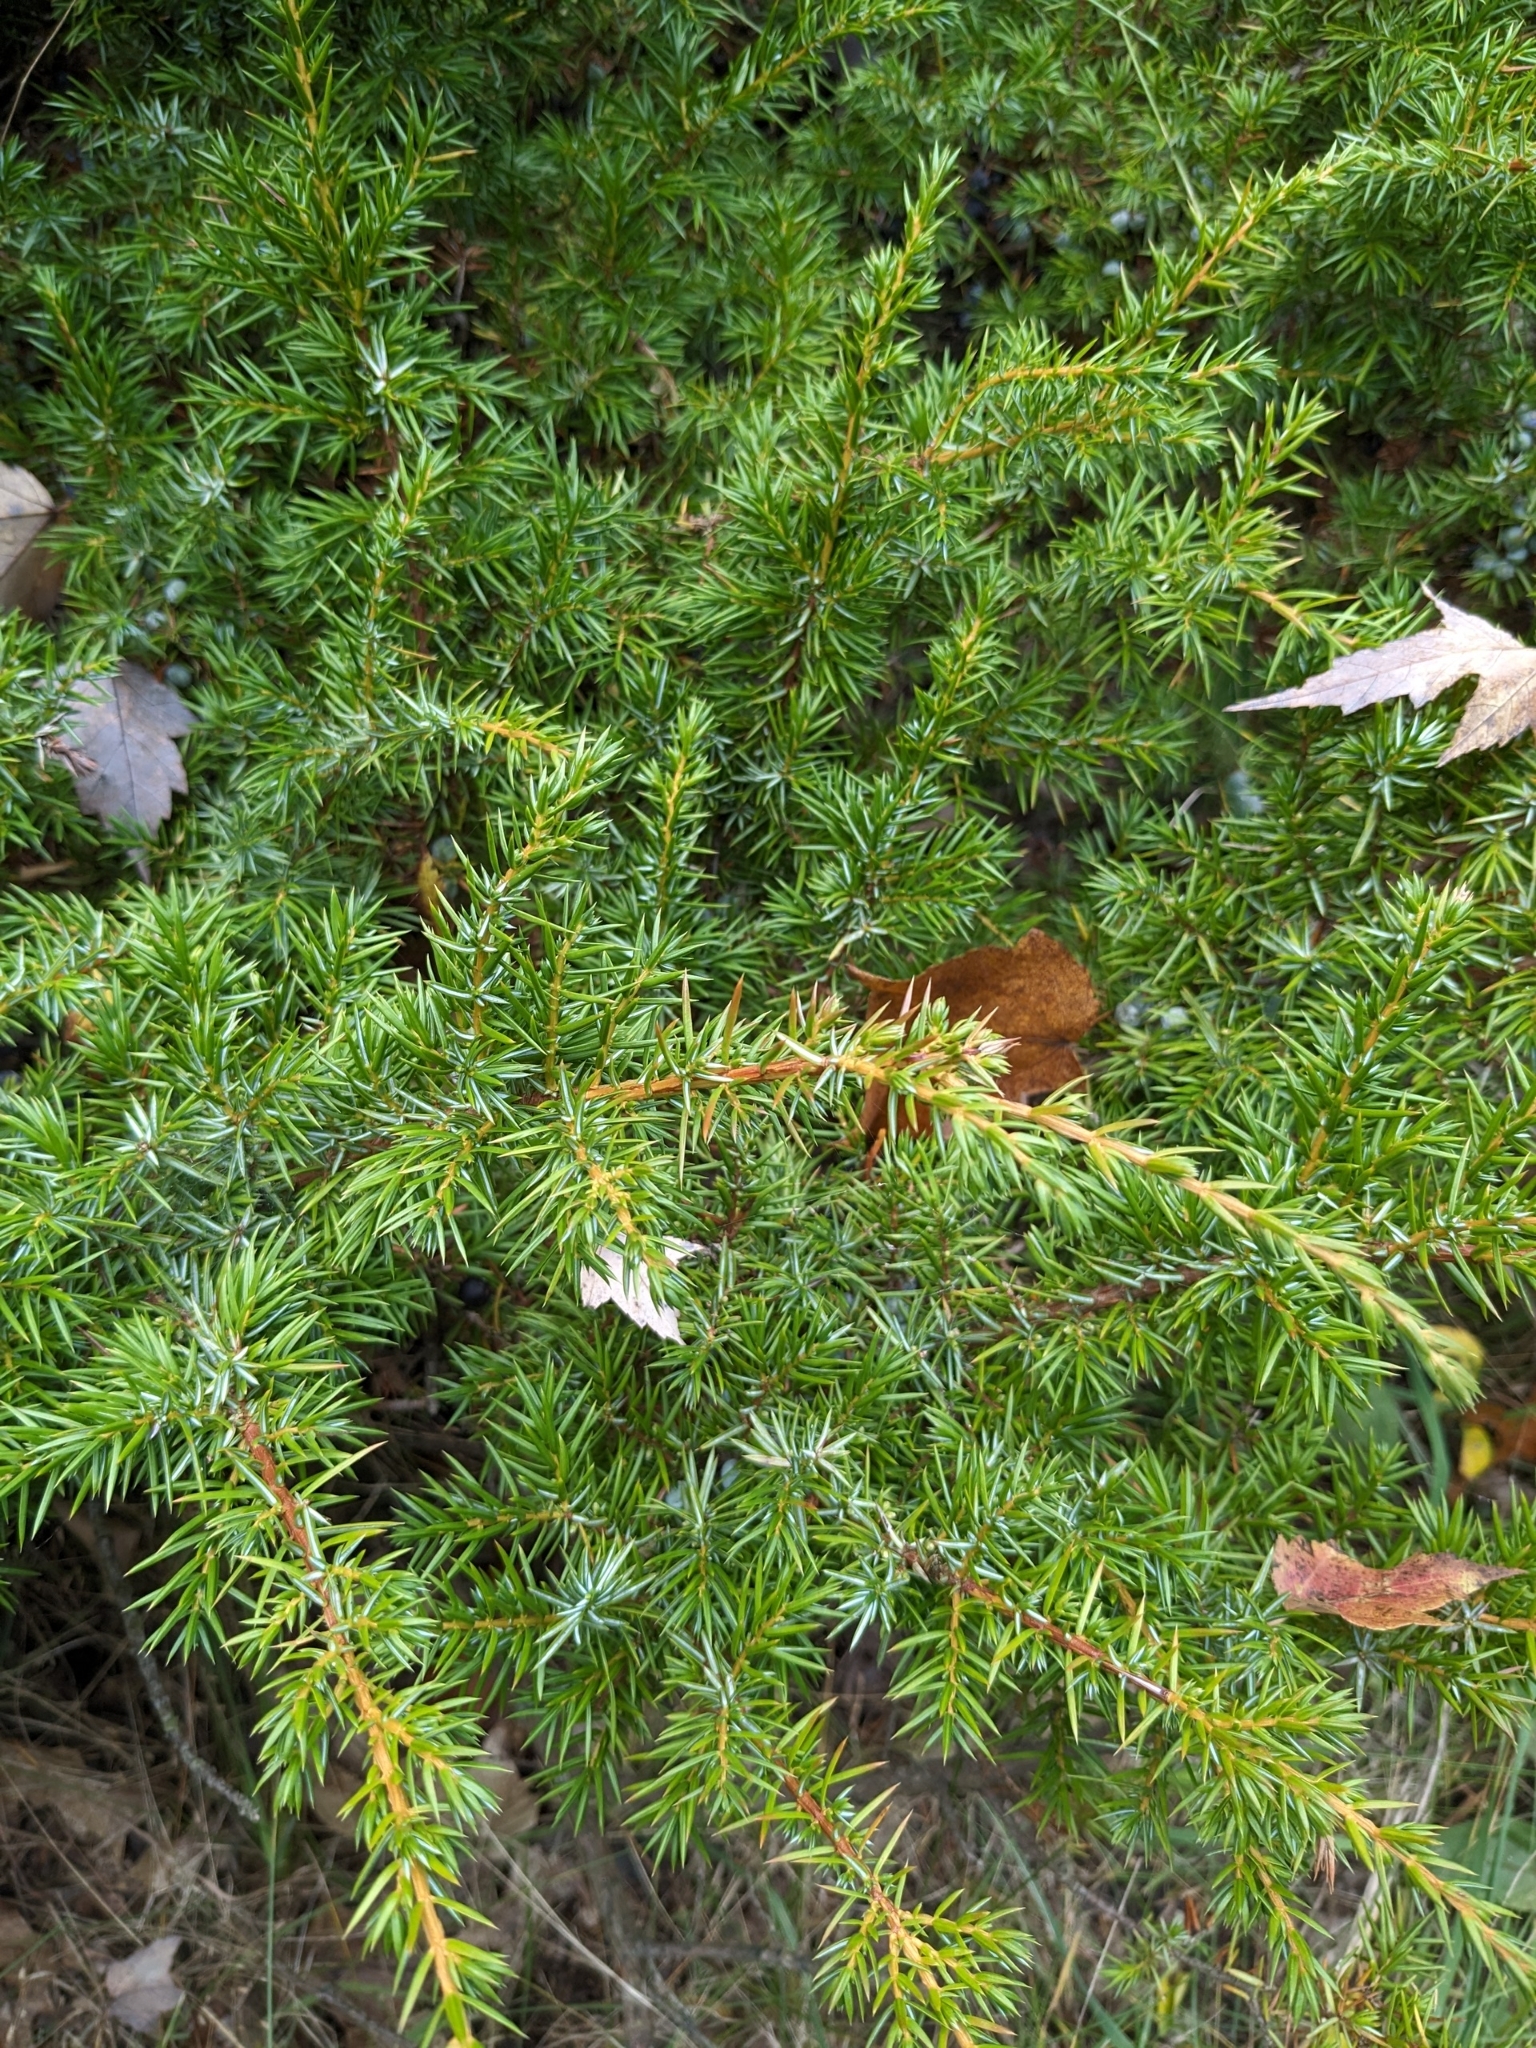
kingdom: Plantae
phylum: Tracheophyta
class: Pinopsida
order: Pinales
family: Cupressaceae
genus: Juniperus
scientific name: Juniperus communis
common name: Common juniper
